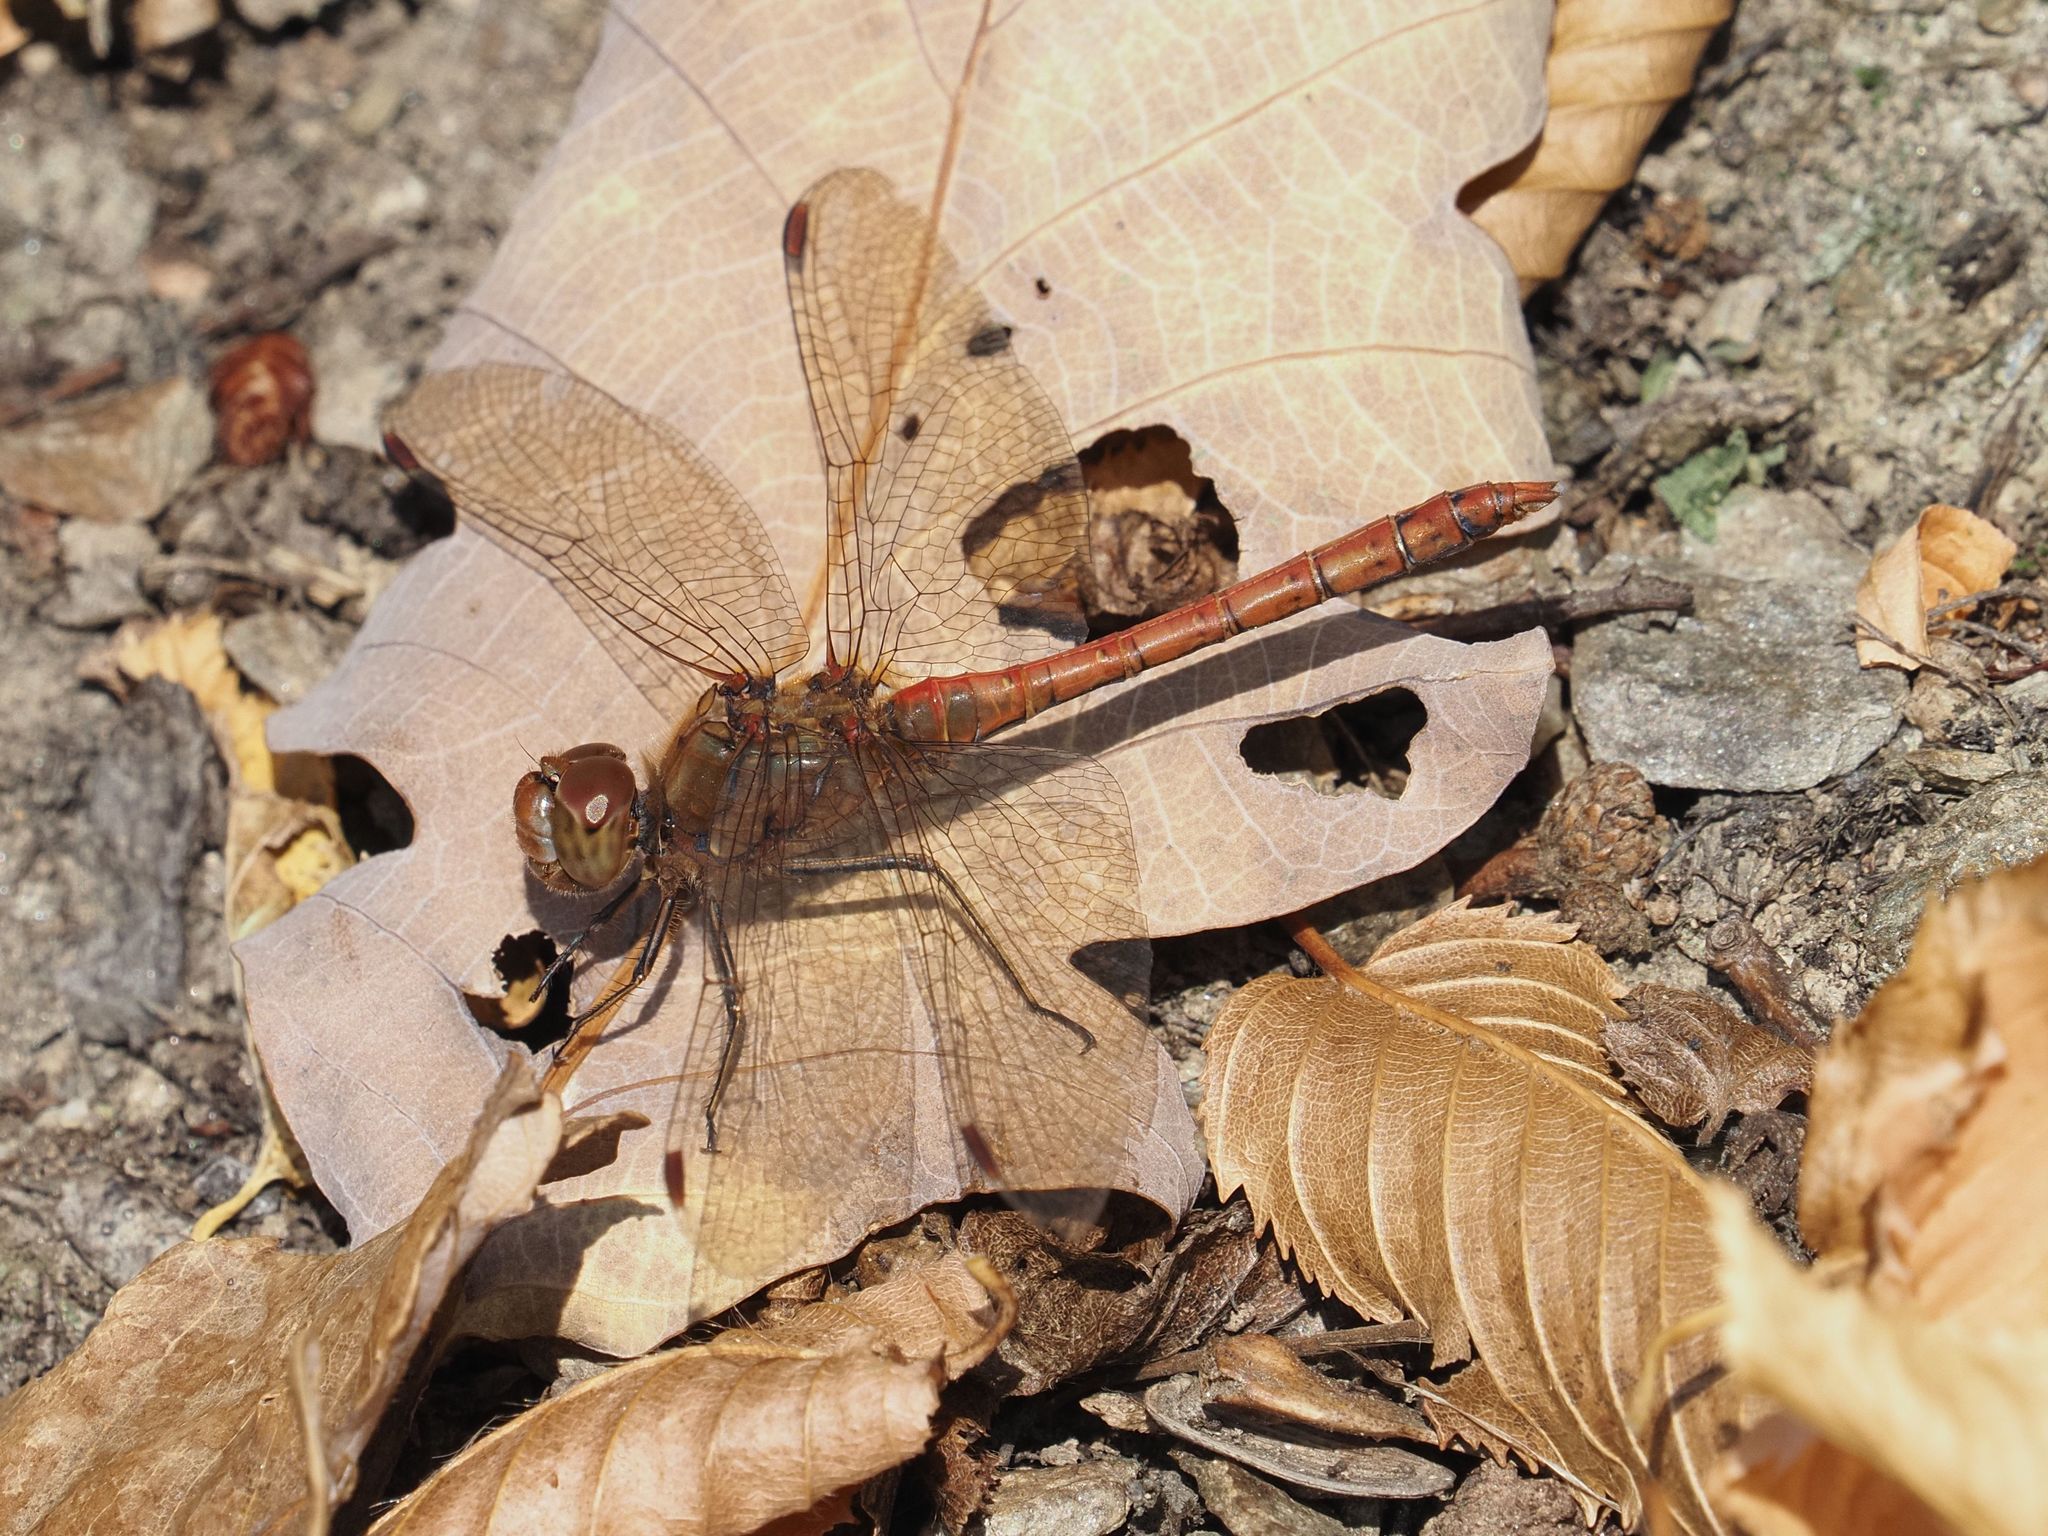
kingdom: Animalia
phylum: Arthropoda
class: Insecta
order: Odonata
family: Libellulidae
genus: Sympetrum
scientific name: Sympetrum striolatum
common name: Common darter
